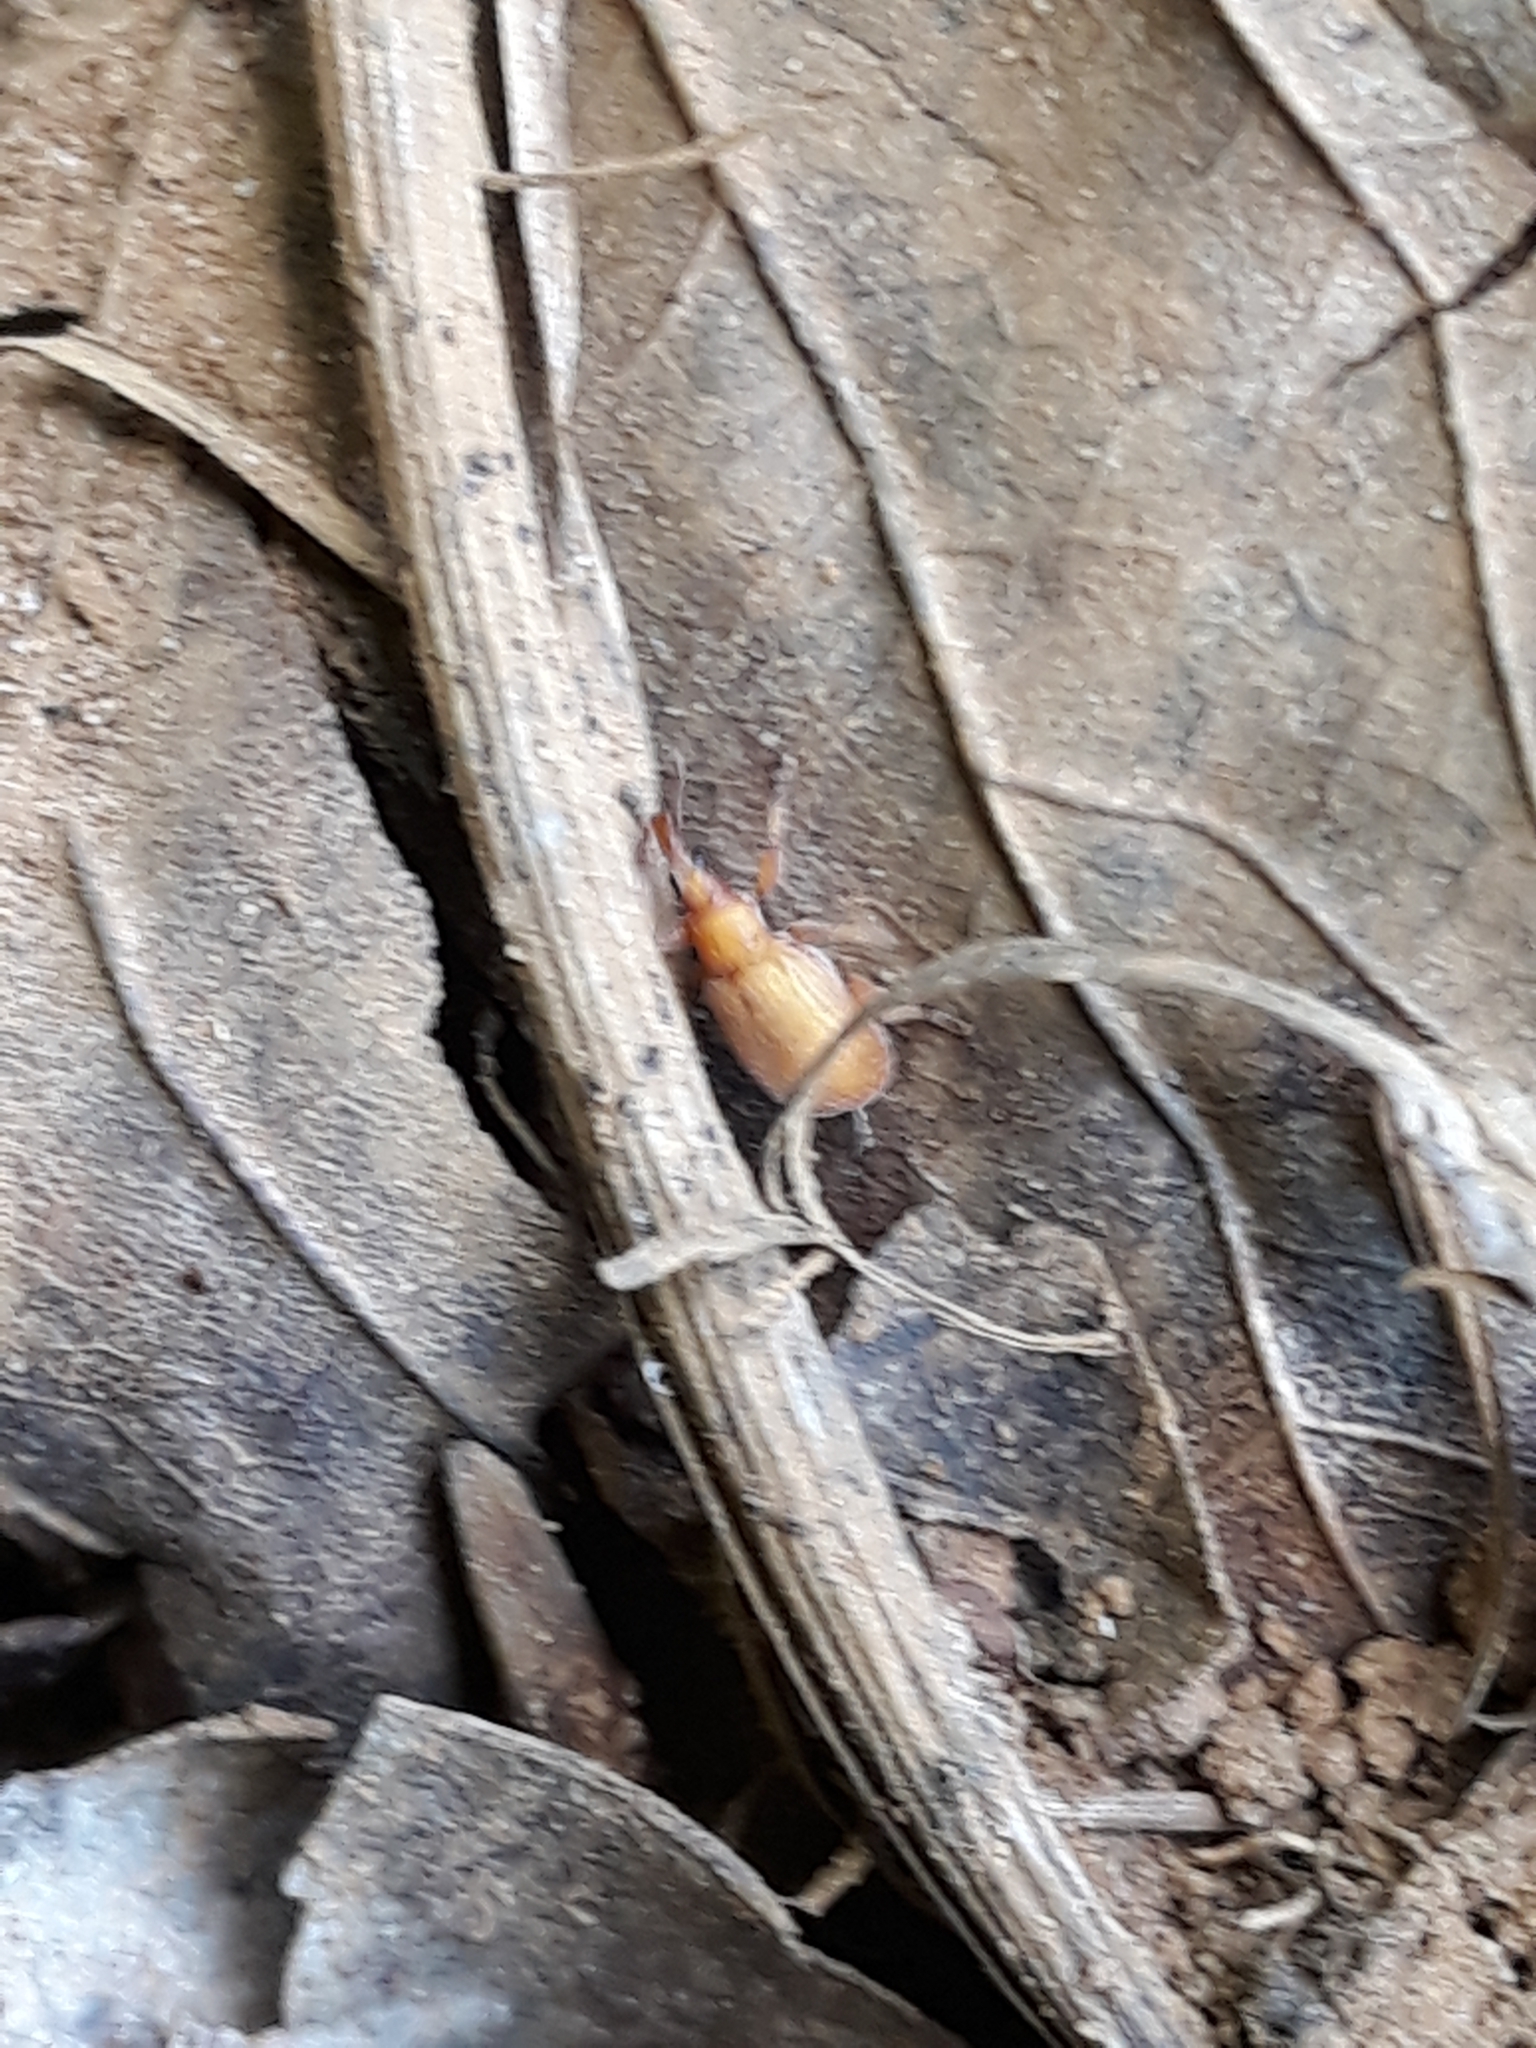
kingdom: Animalia
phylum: Arthropoda
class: Insecta
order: Coleoptera
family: Apionidae
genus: Apion
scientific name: Apion frumentarium
